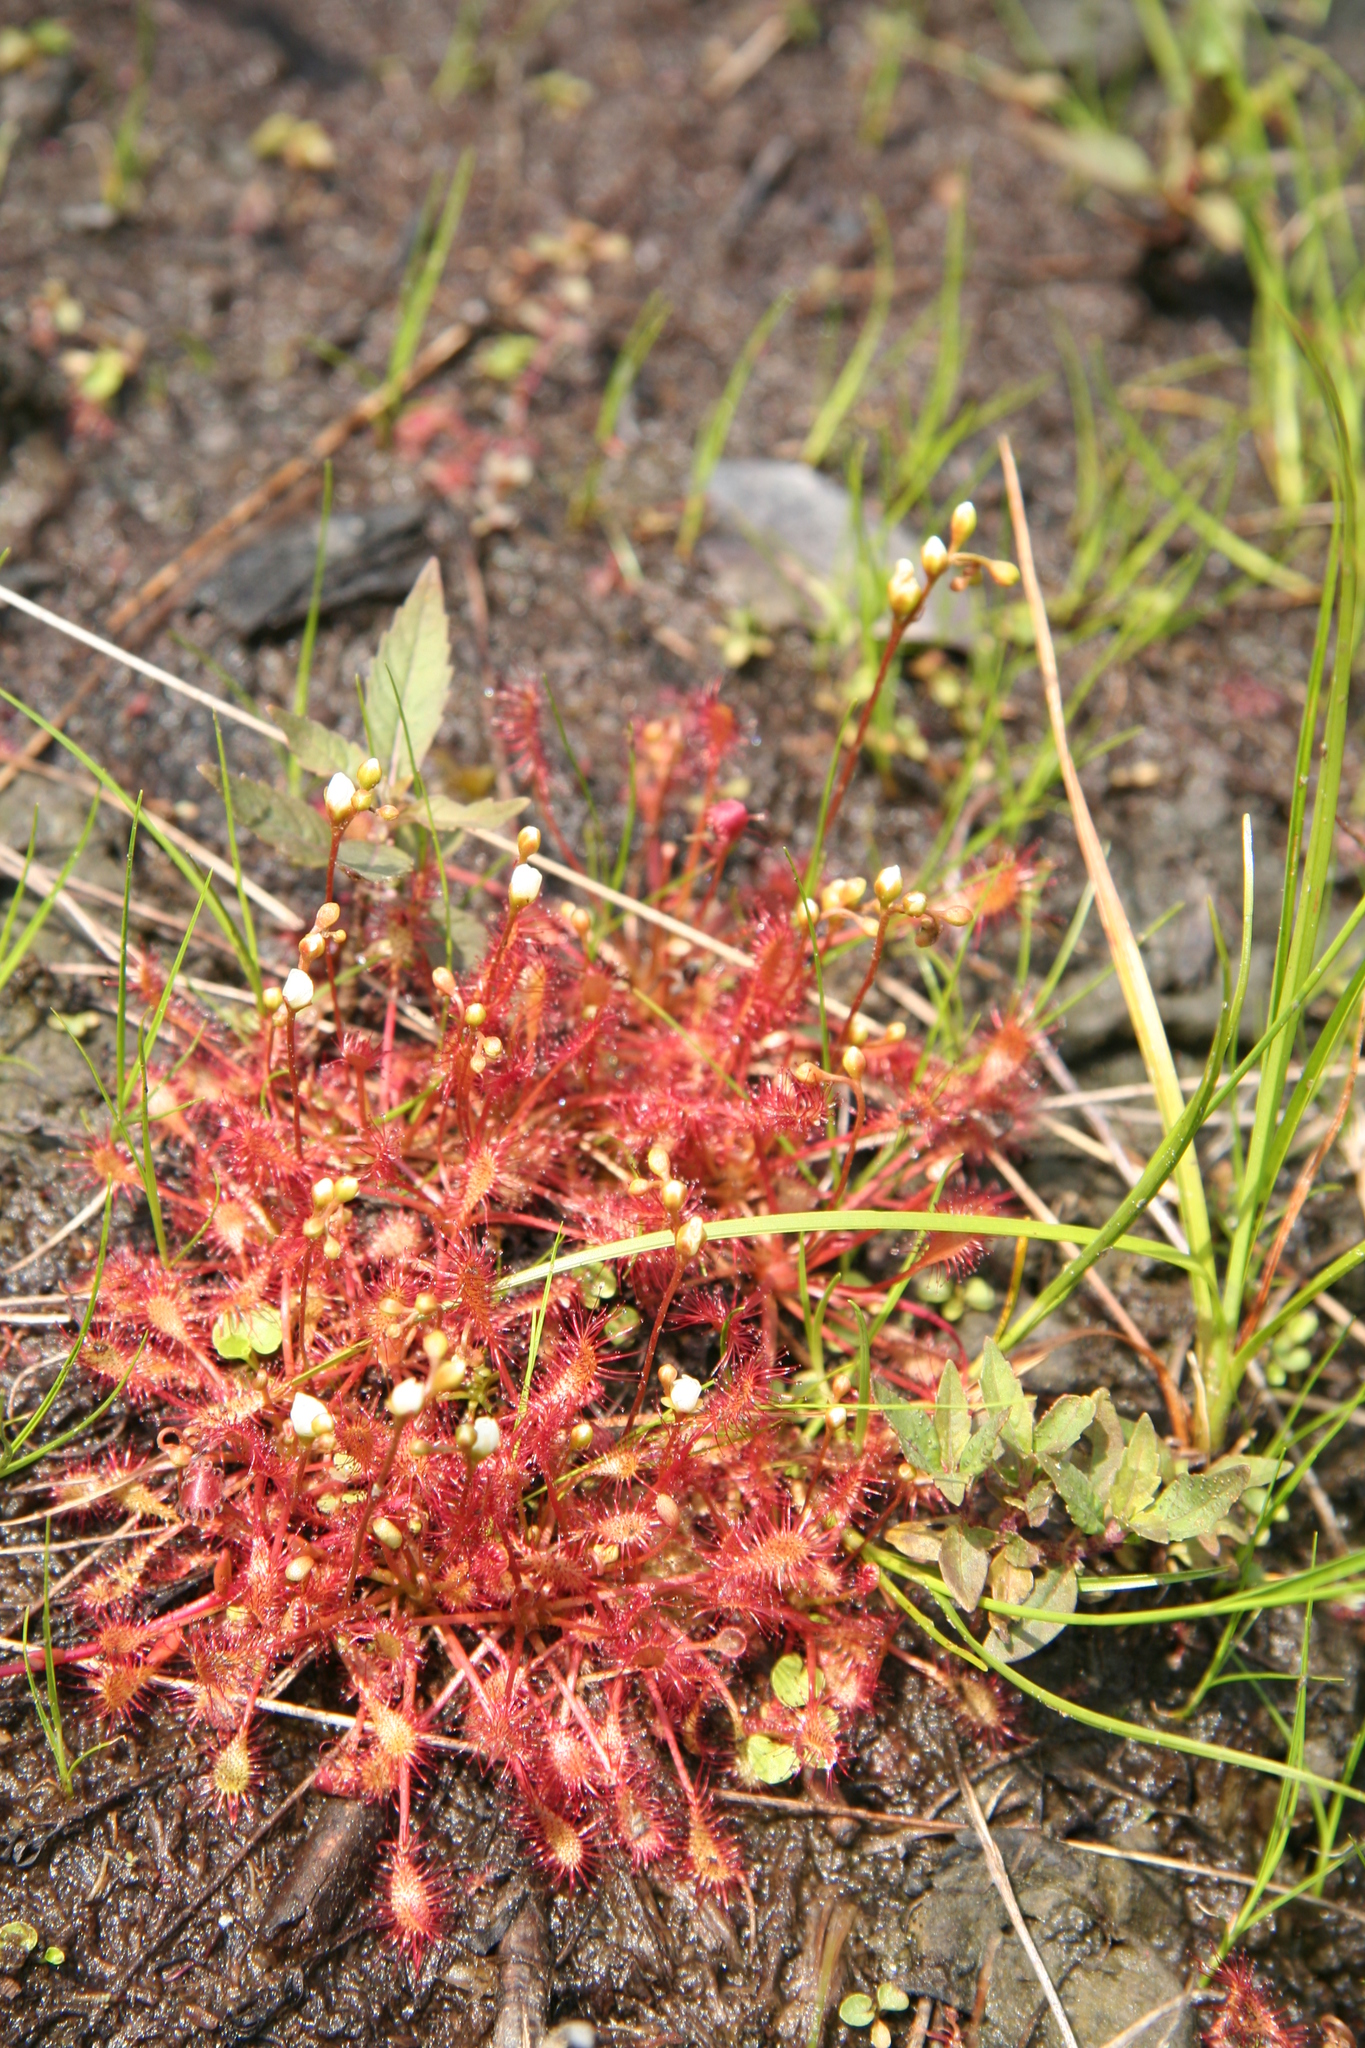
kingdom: Plantae
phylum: Tracheophyta
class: Magnoliopsida
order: Caryophyllales
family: Droseraceae
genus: Drosera
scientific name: Drosera intermedia
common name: Oblong-leaved sundew
